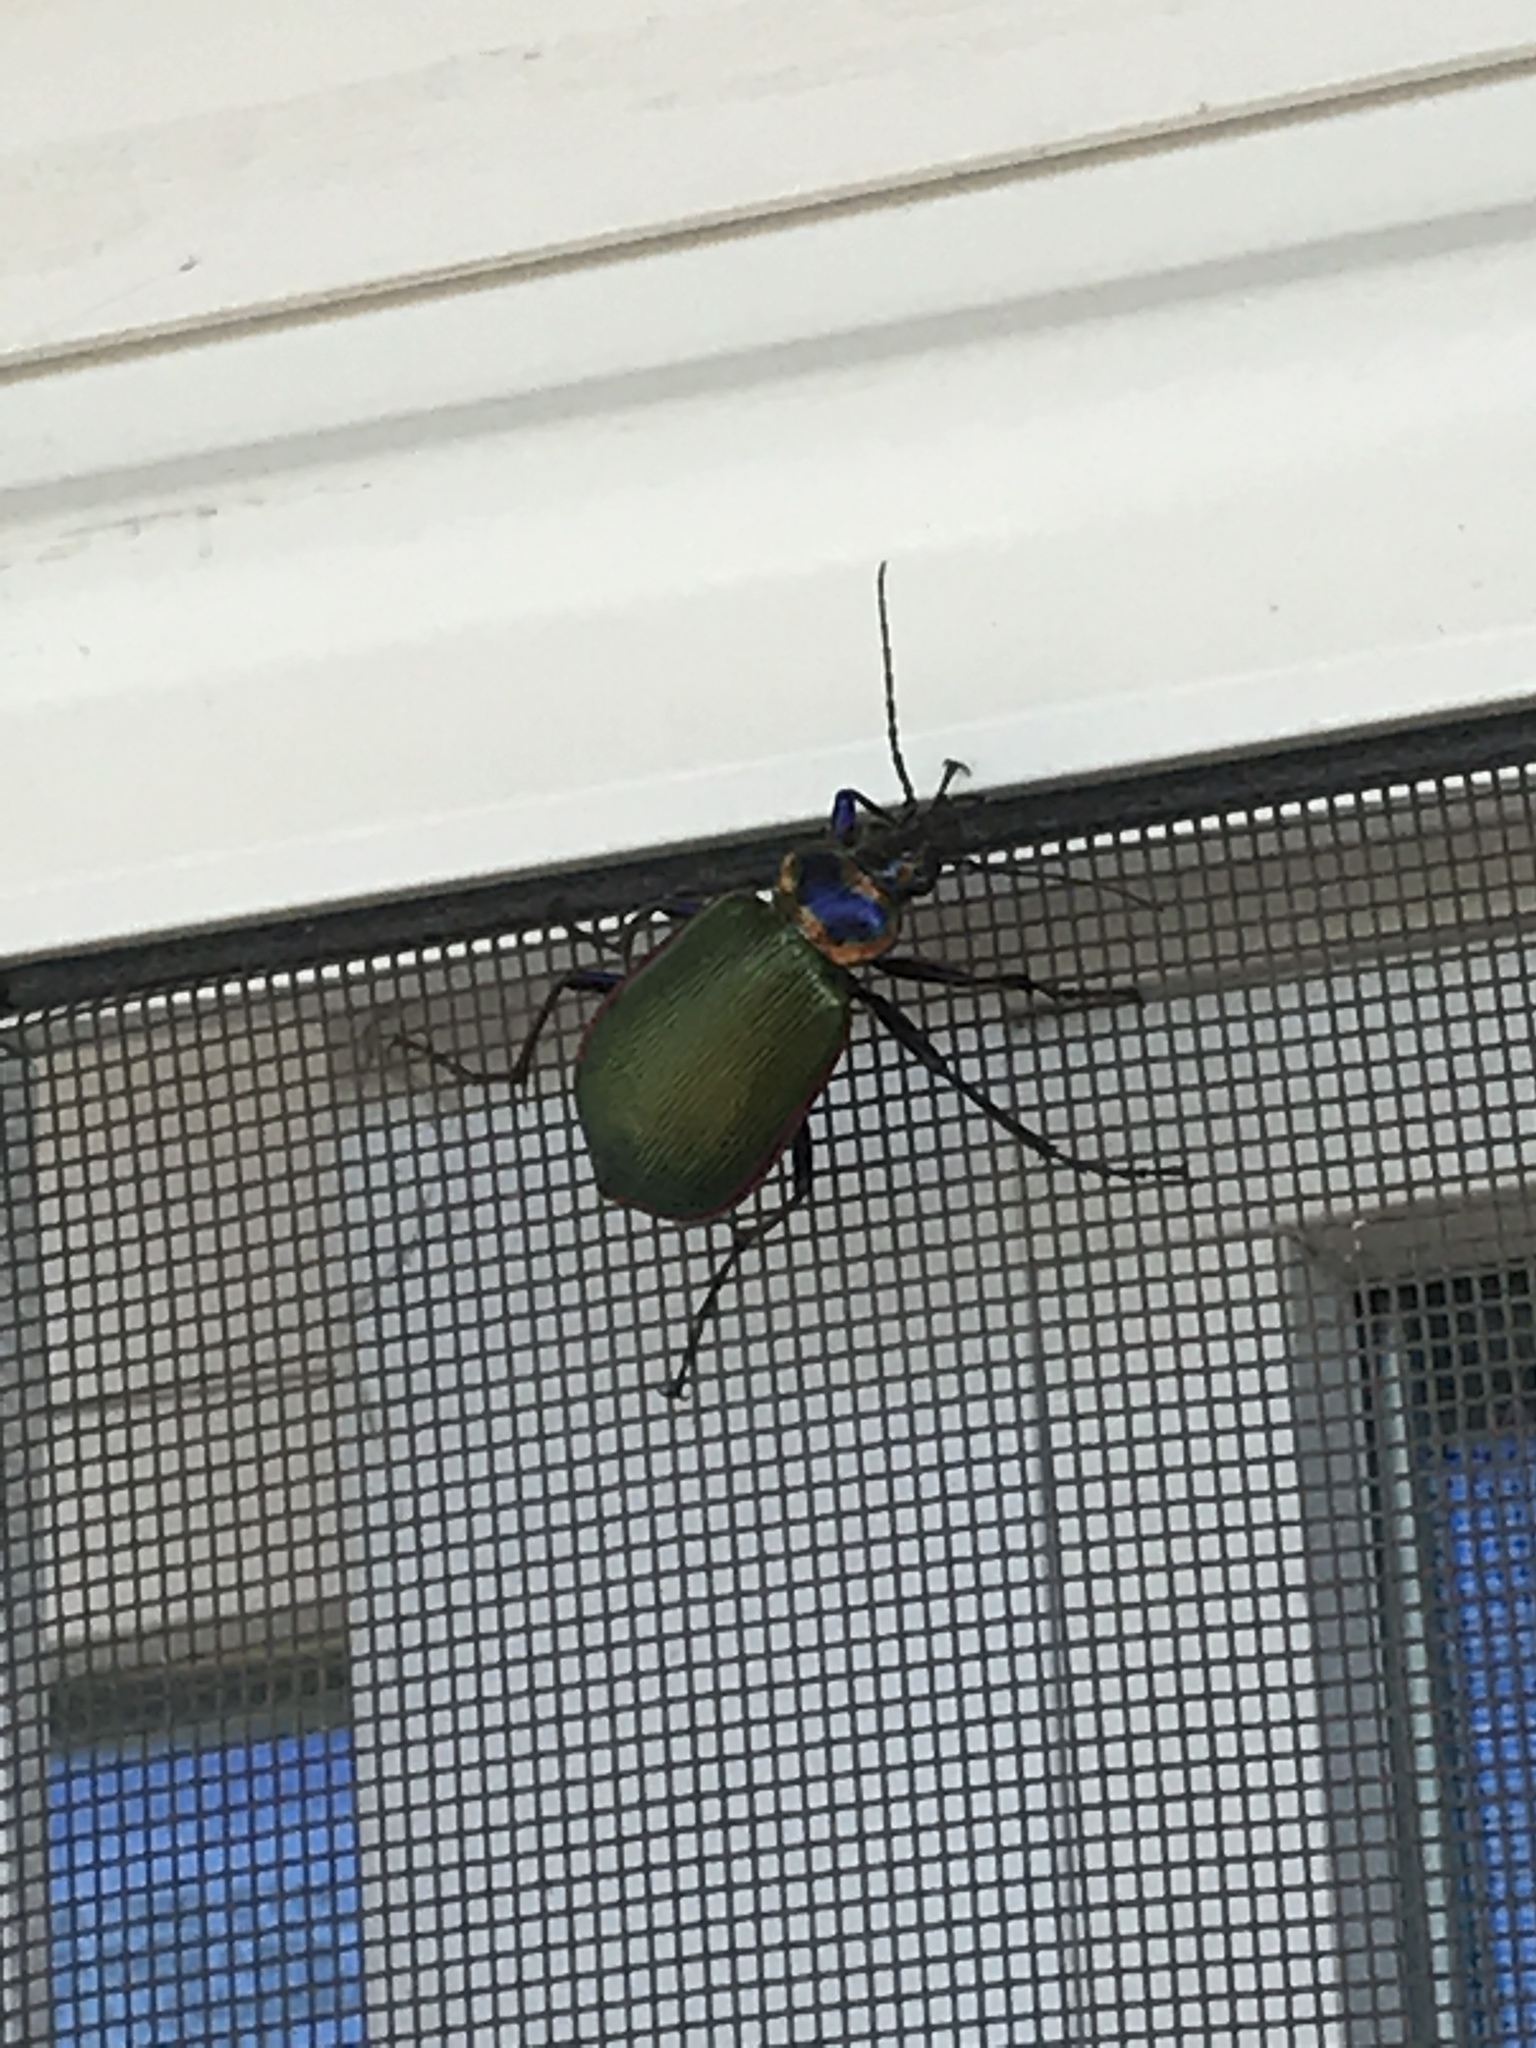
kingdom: Animalia
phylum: Arthropoda
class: Insecta
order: Coleoptera
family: Carabidae
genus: Calosoma
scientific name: Calosoma scrutator
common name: Fiery searcher beetle
